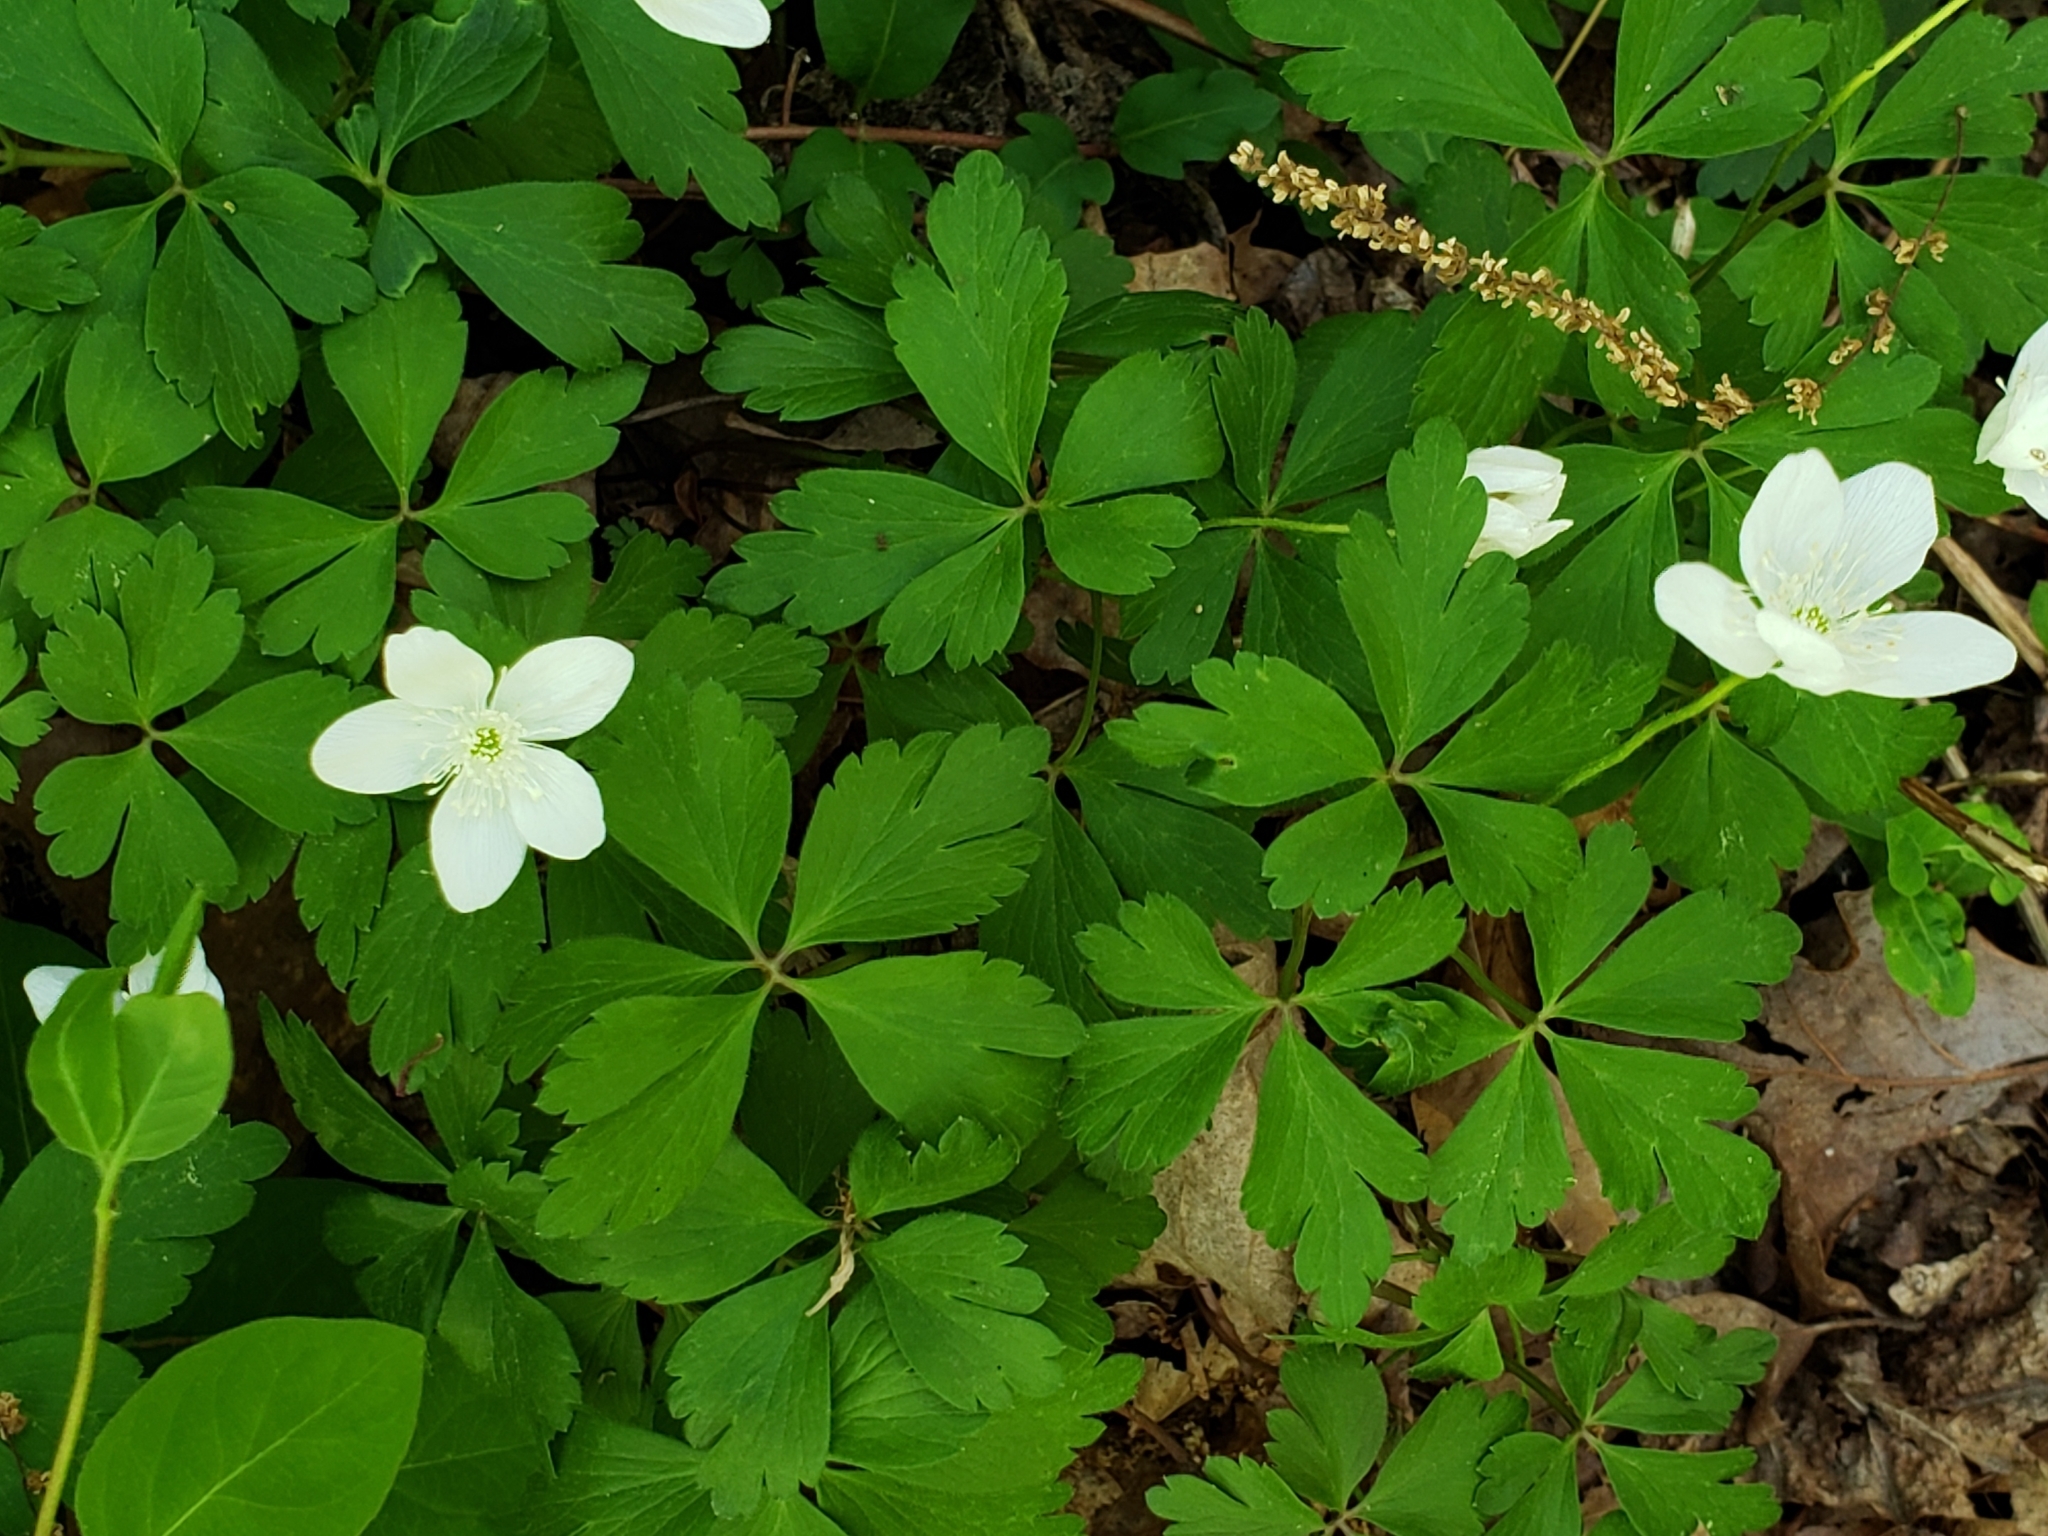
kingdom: Plantae
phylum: Tracheophyta
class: Magnoliopsida
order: Ranunculales
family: Ranunculaceae
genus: Anemone
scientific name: Anemone quinquefolia
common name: Wood anemone
